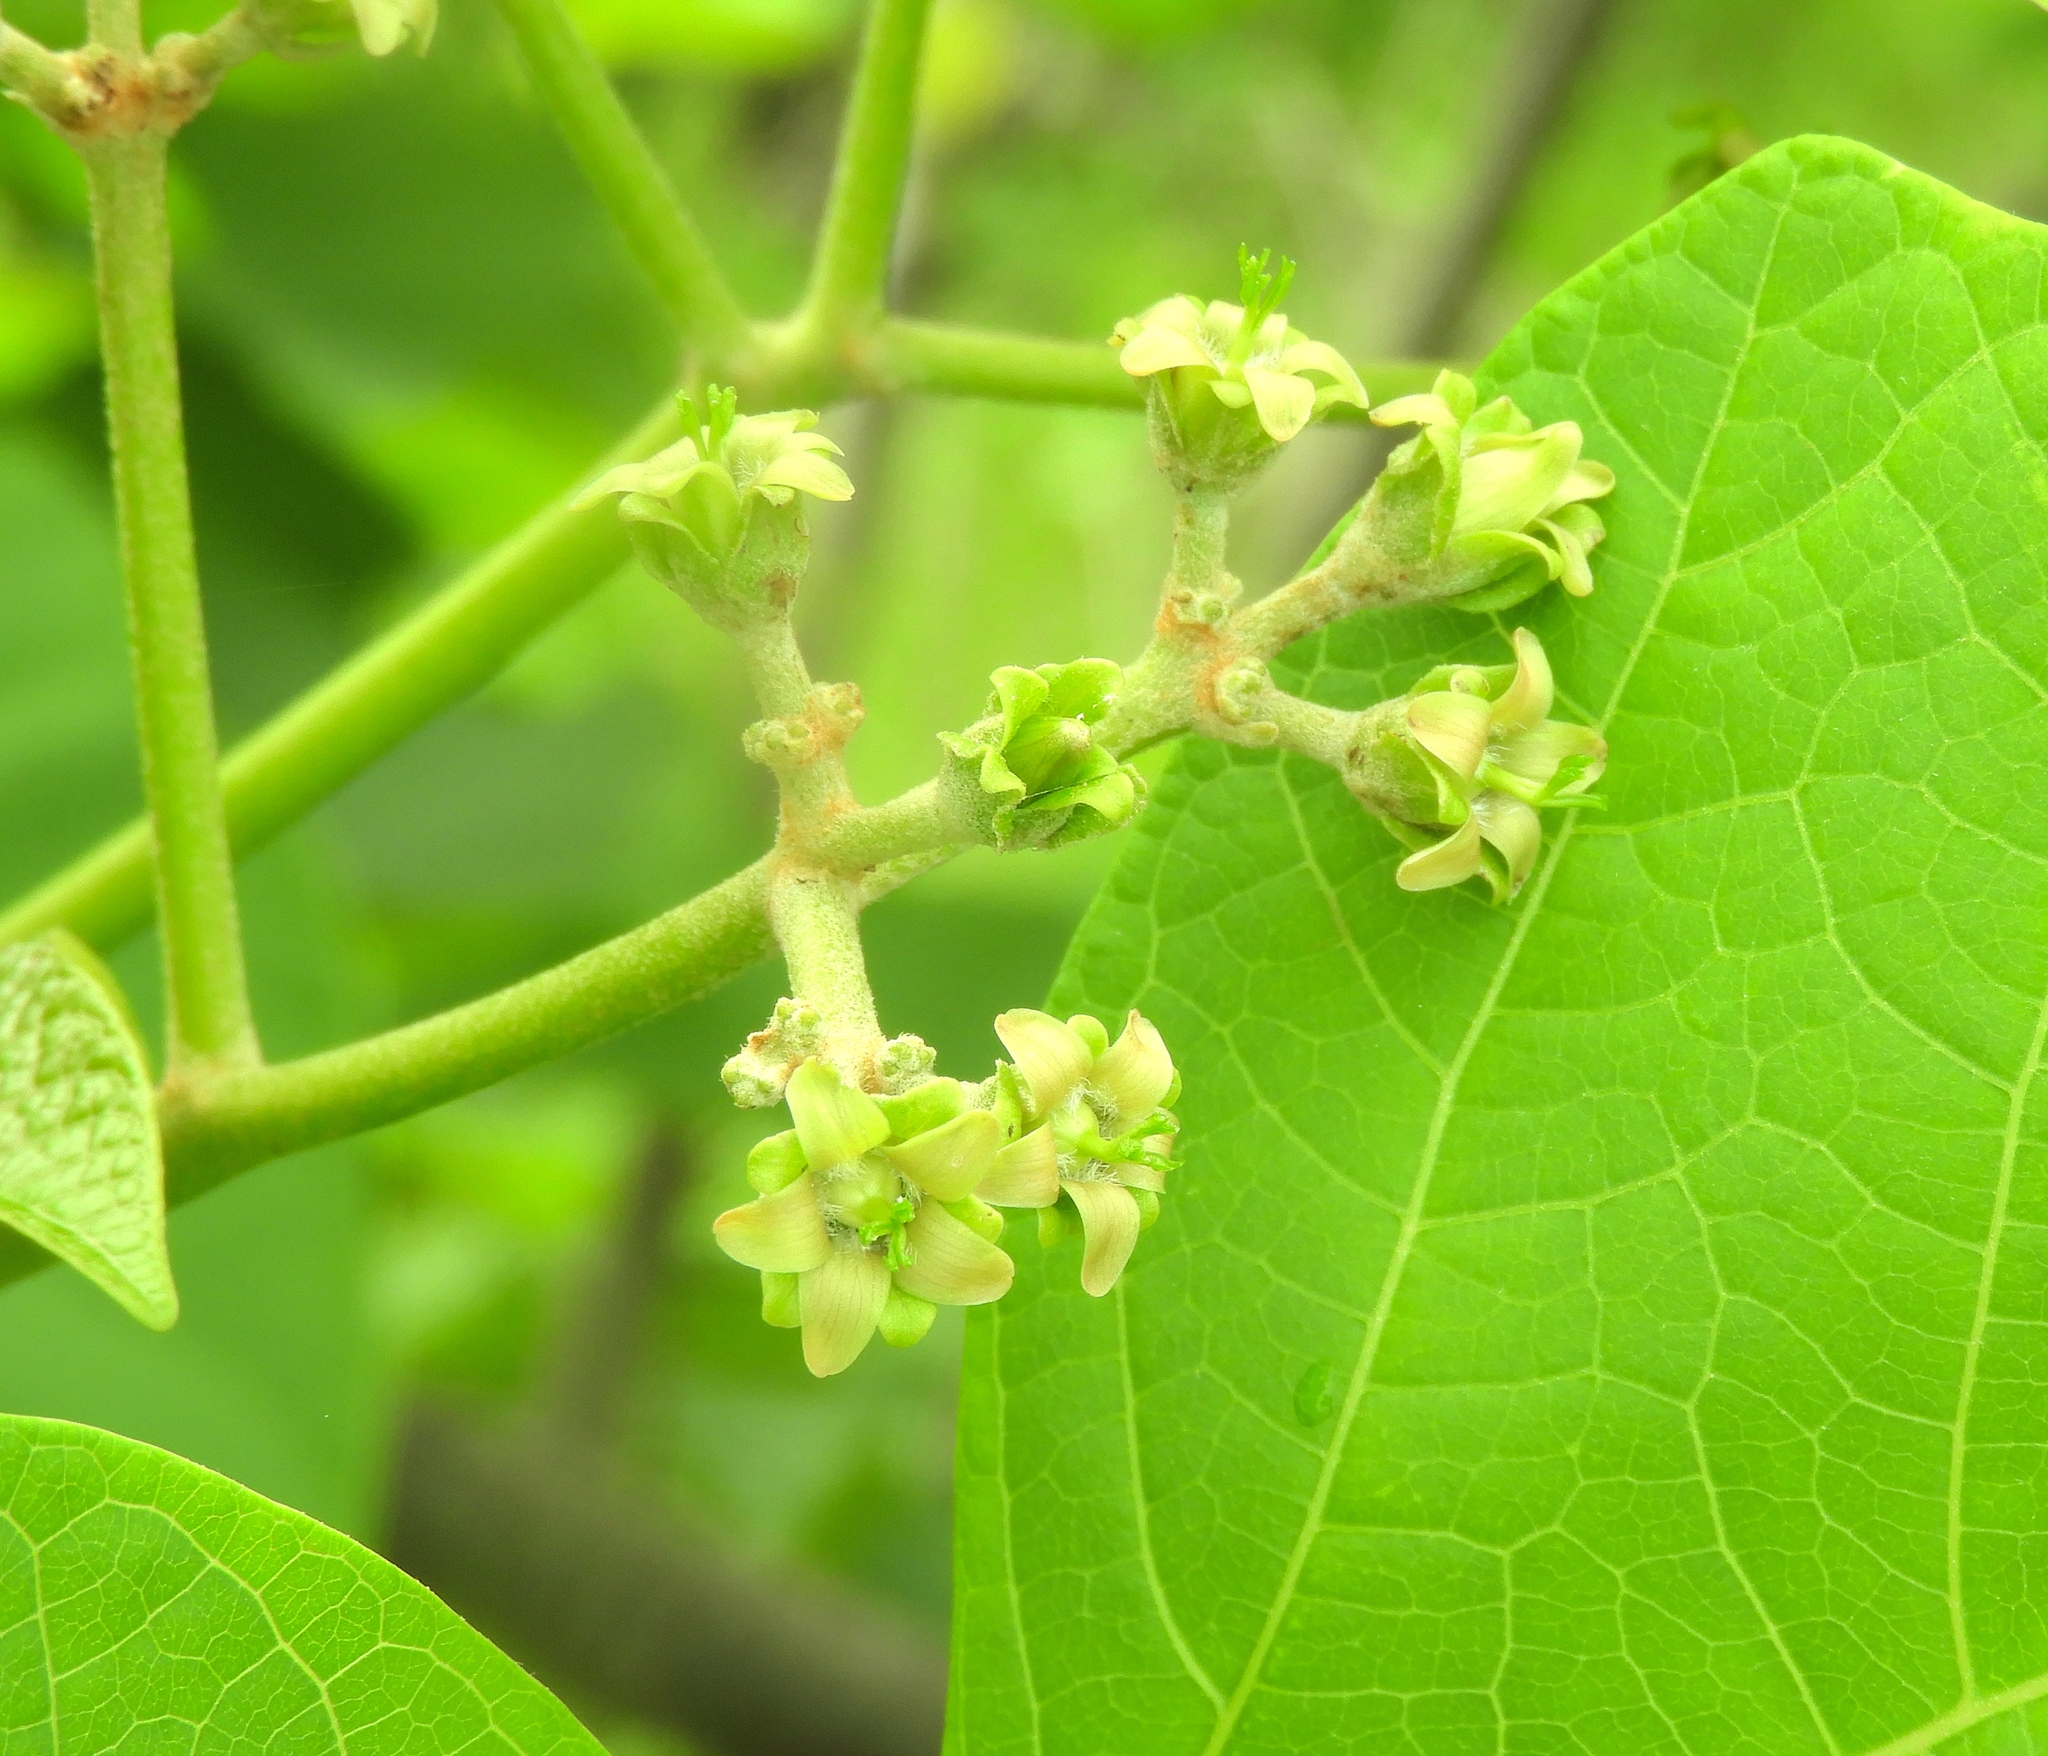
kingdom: Plantae
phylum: Tracheophyta
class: Magnoliopsida
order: Malpighiales
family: Euphorbiaceae
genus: Jatropha
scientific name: Jatropha curcas
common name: Barbados nut
